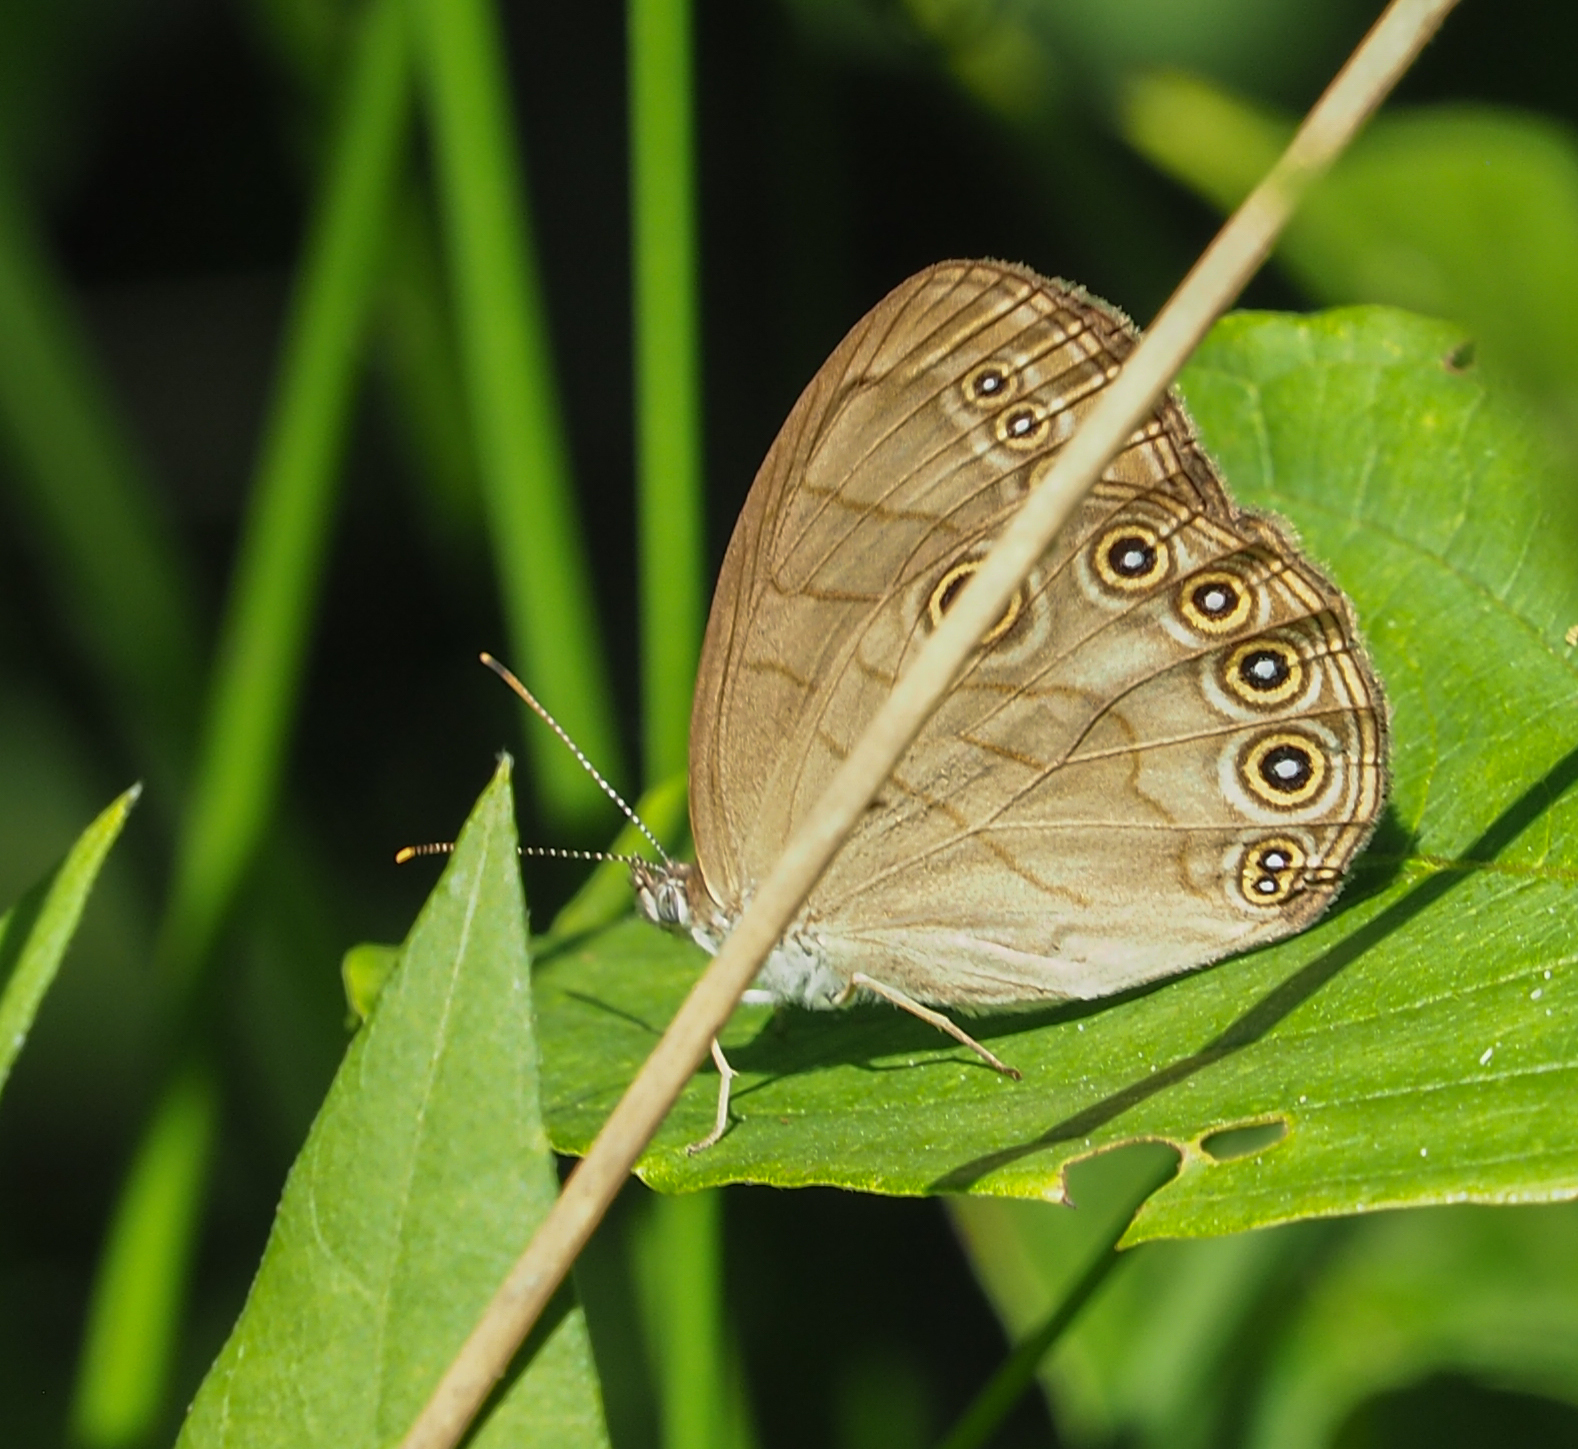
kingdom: Animalia
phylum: Arthropoda
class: Insecta
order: Lepidoptera
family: Nymphalidae
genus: Lethe
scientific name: Lethe eurydice
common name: Eyed brown
